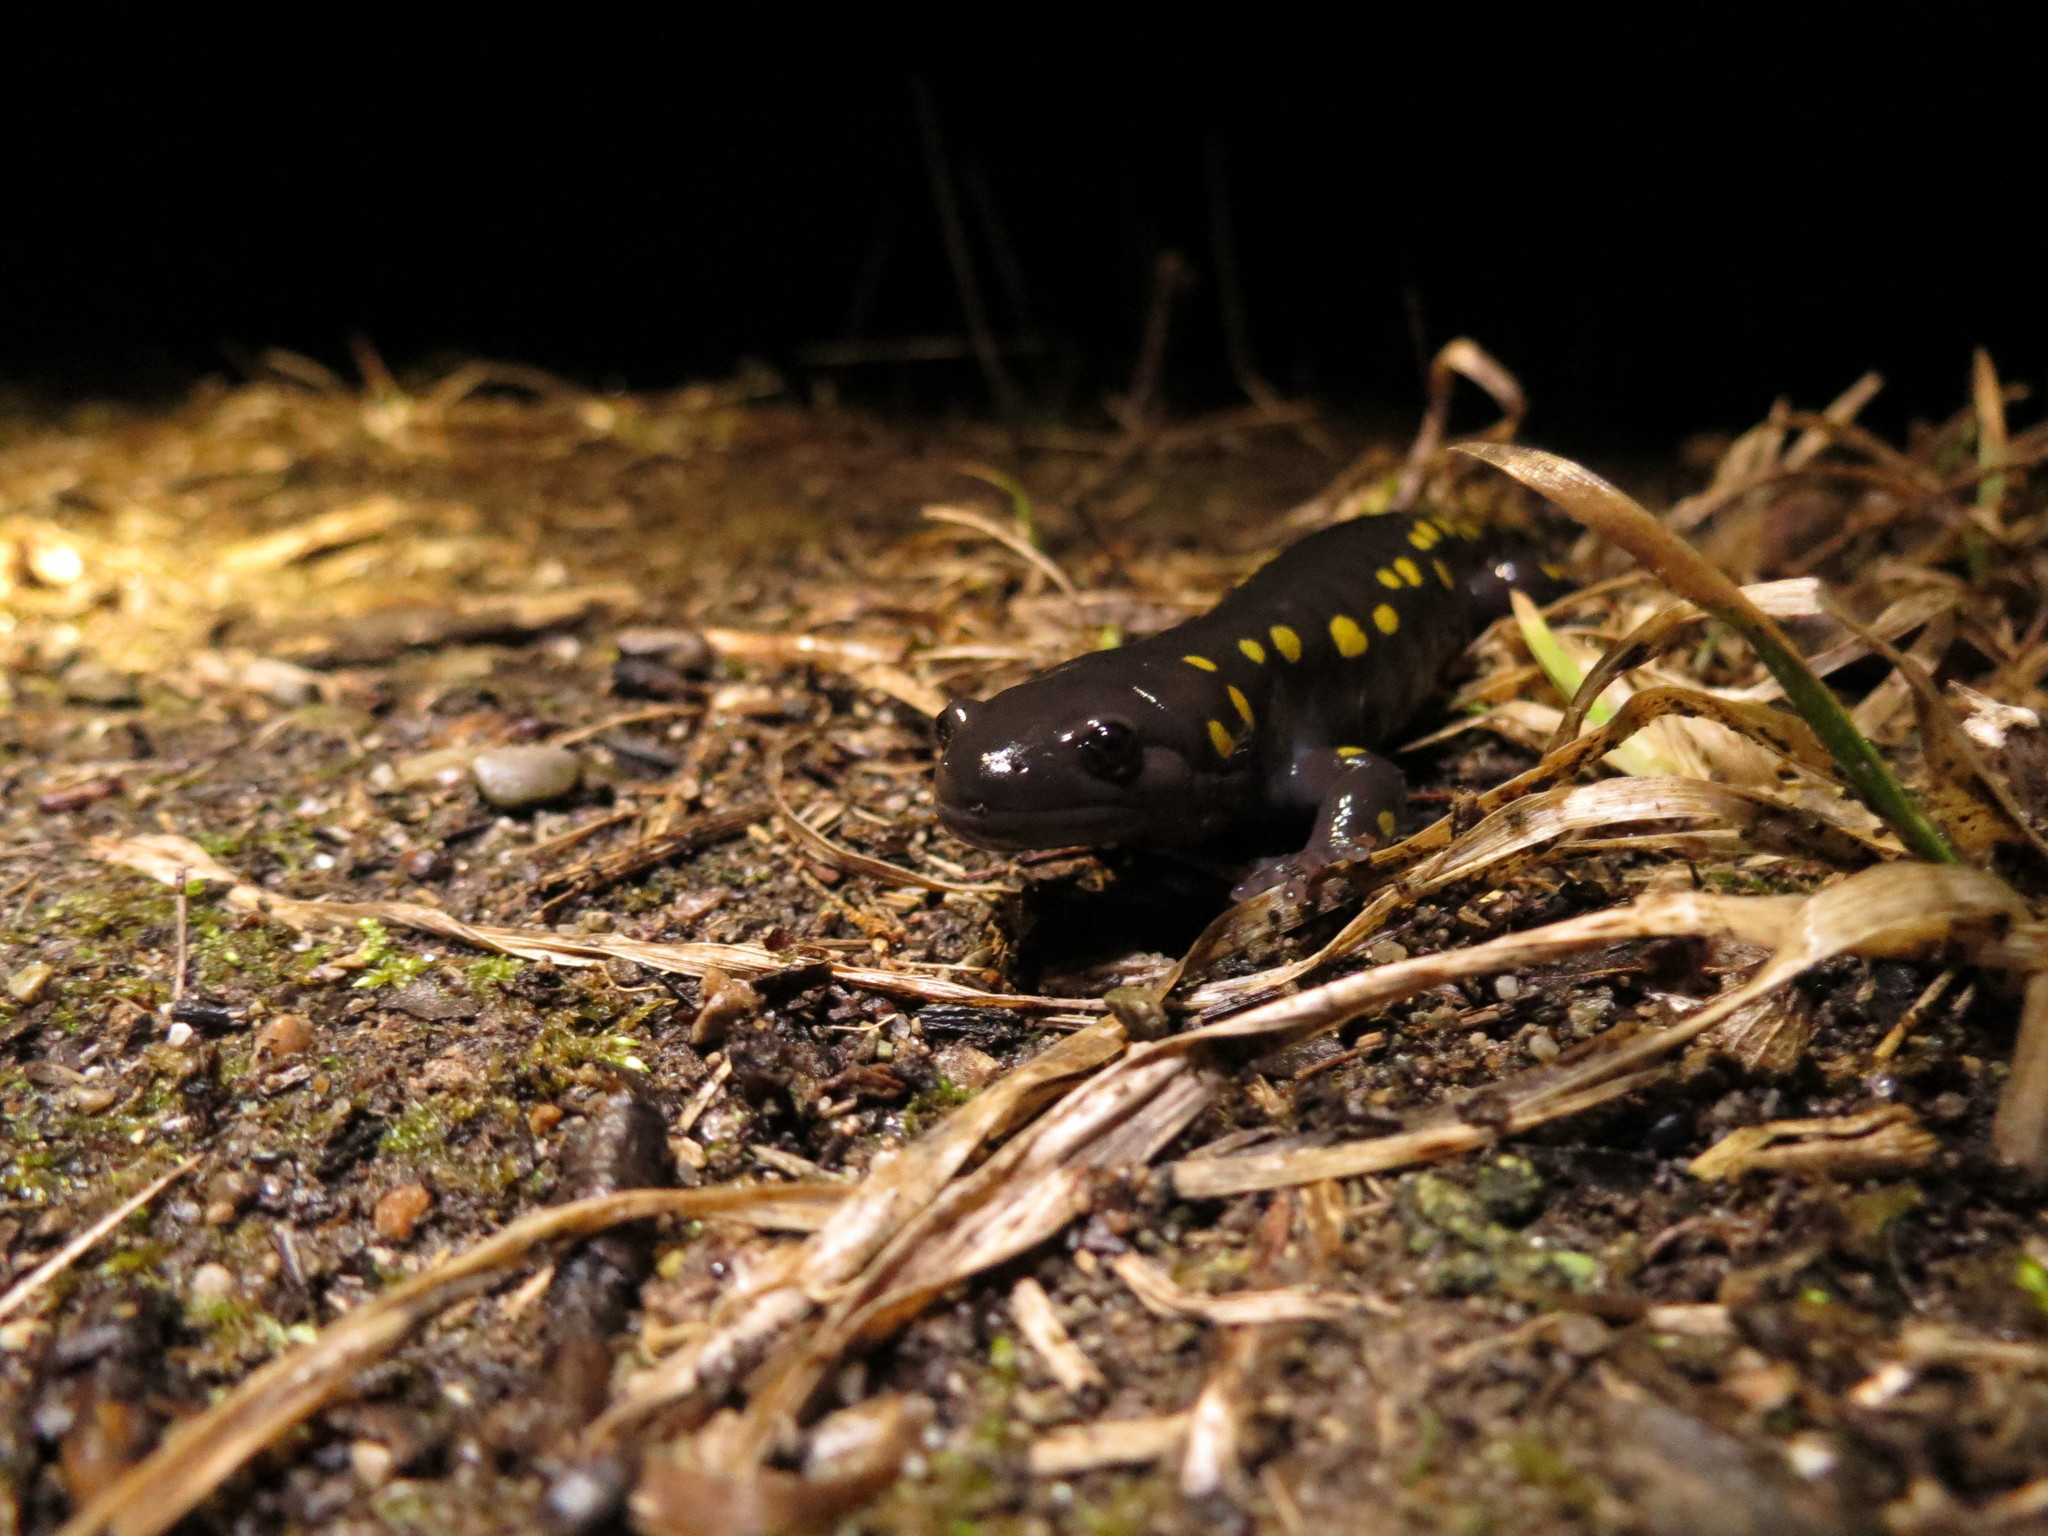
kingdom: Animalia
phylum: Chordata
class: Amphibia
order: Caudata
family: Ambystomatidae
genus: Ambystoma
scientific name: Ambystoma maculatum
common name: Spotted salamander
